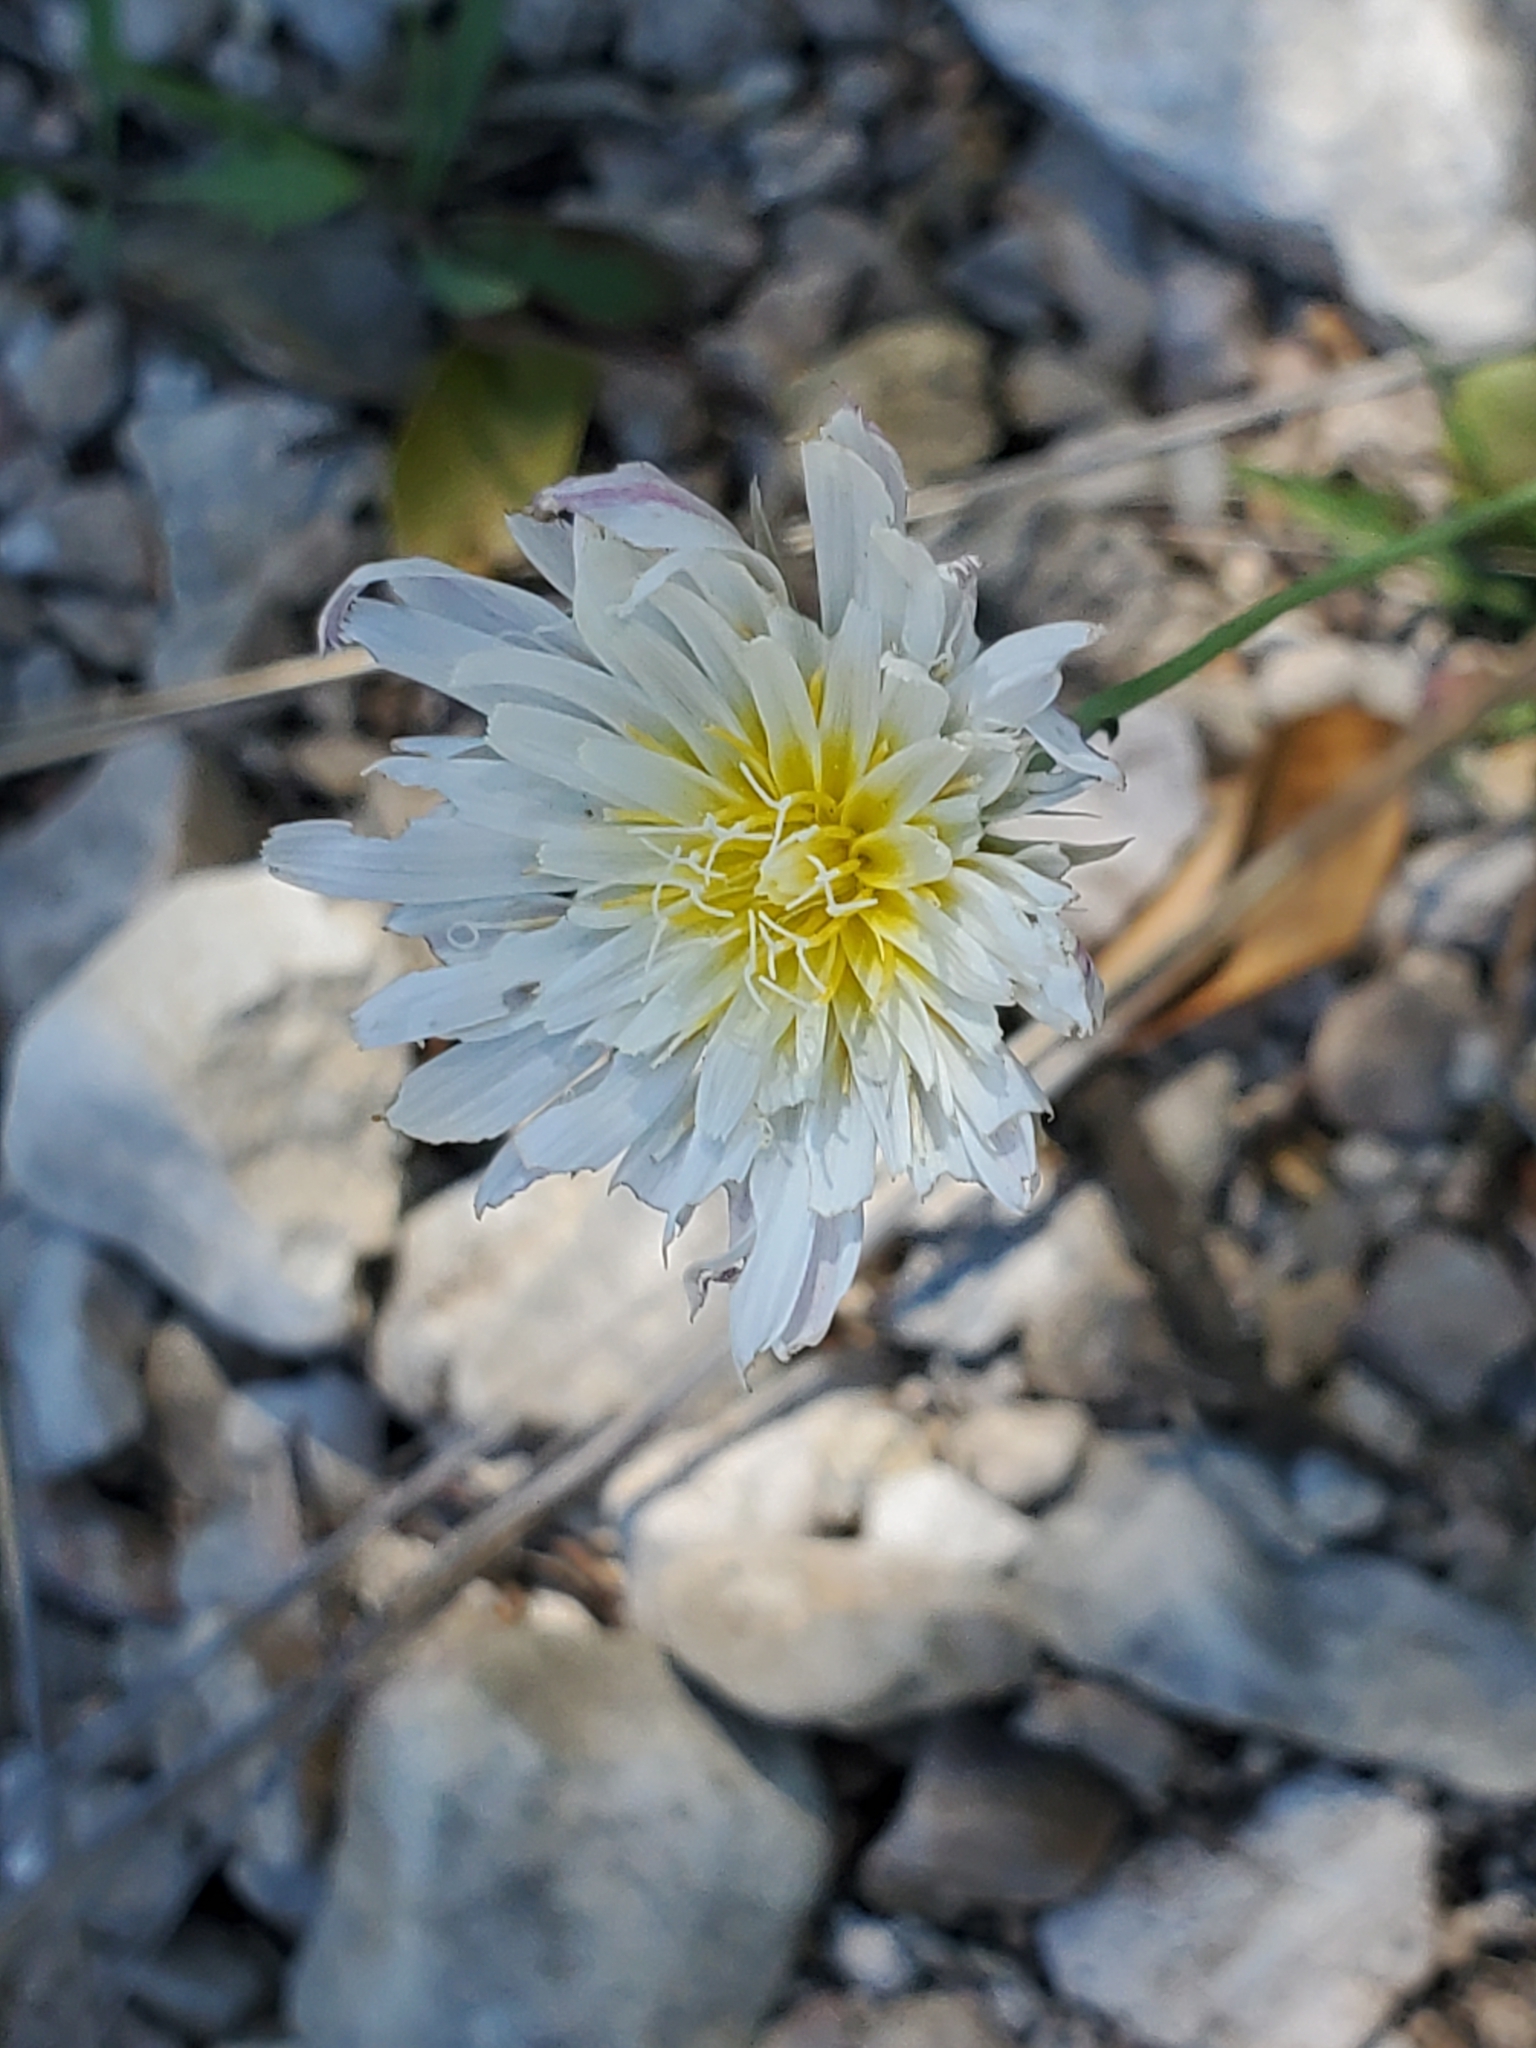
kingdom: Plantae
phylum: Tracheophyta
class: Magnoliopsida
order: Asterales
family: Asteraceae
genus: Pinaropappus
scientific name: Pinaropappus roseus
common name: Rock-lettuce
